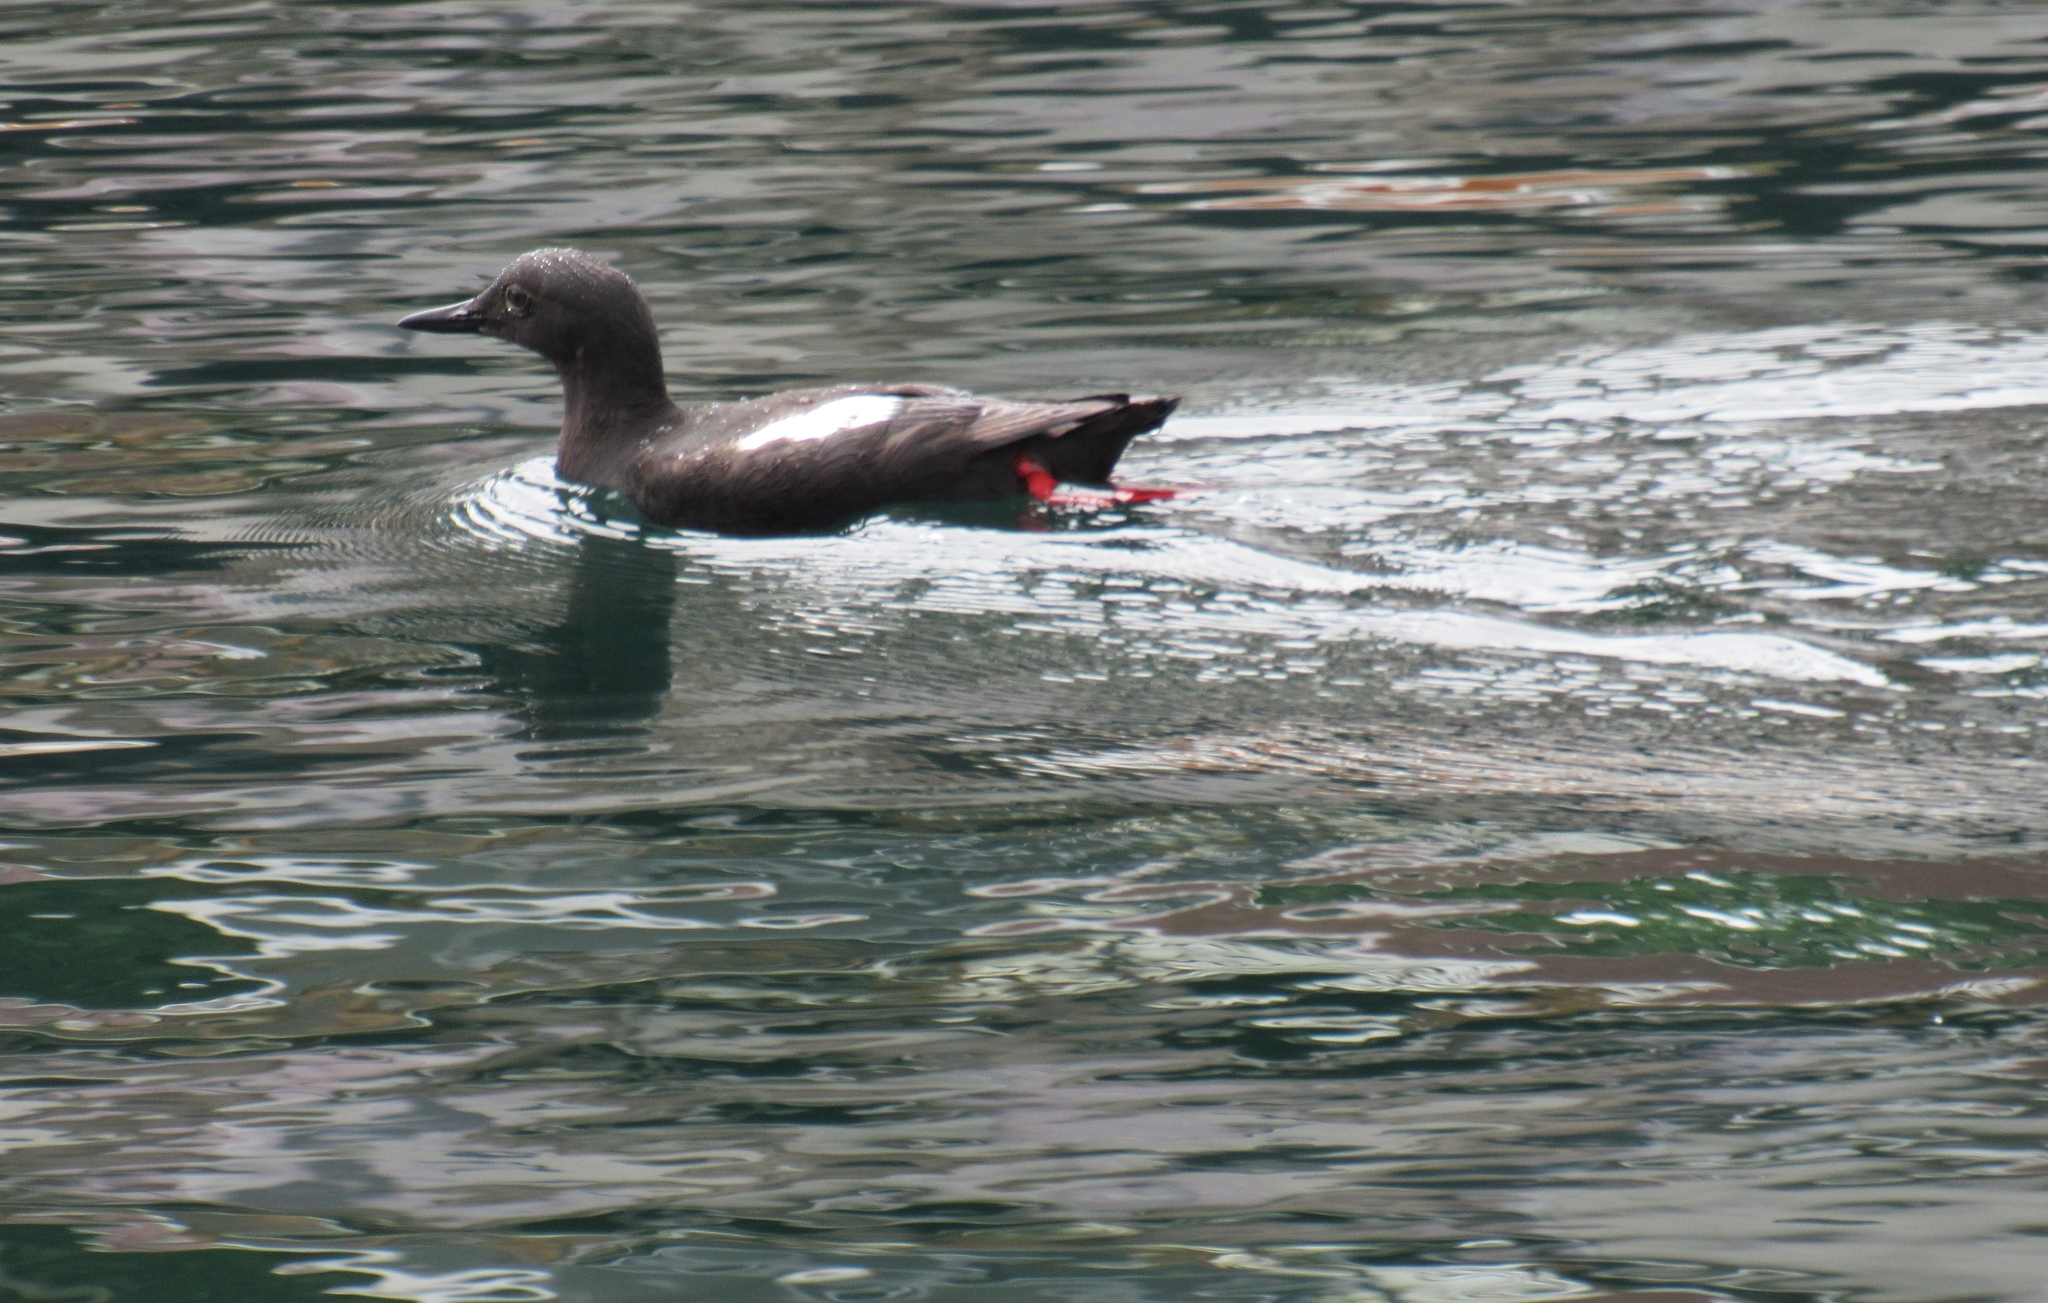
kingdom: Animalia
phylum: Chordata
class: Aves
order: Charadriiformes
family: Alcidae
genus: Cepphus
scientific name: Cepphus columba
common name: Pigeon guillemot
